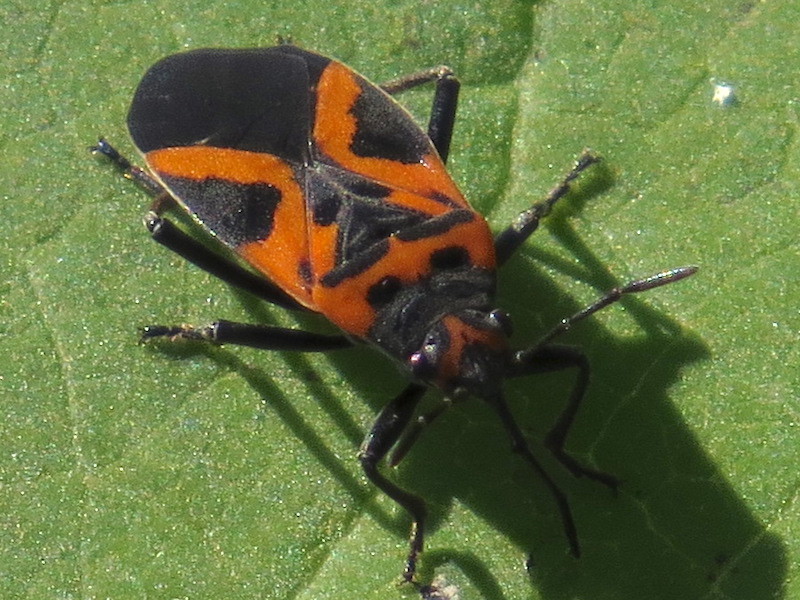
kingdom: Animalia
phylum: Arthropoda
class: Insecta
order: Hemiptera
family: Lygaeidae
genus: Lygaeus
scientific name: Lygaeus turcicus
